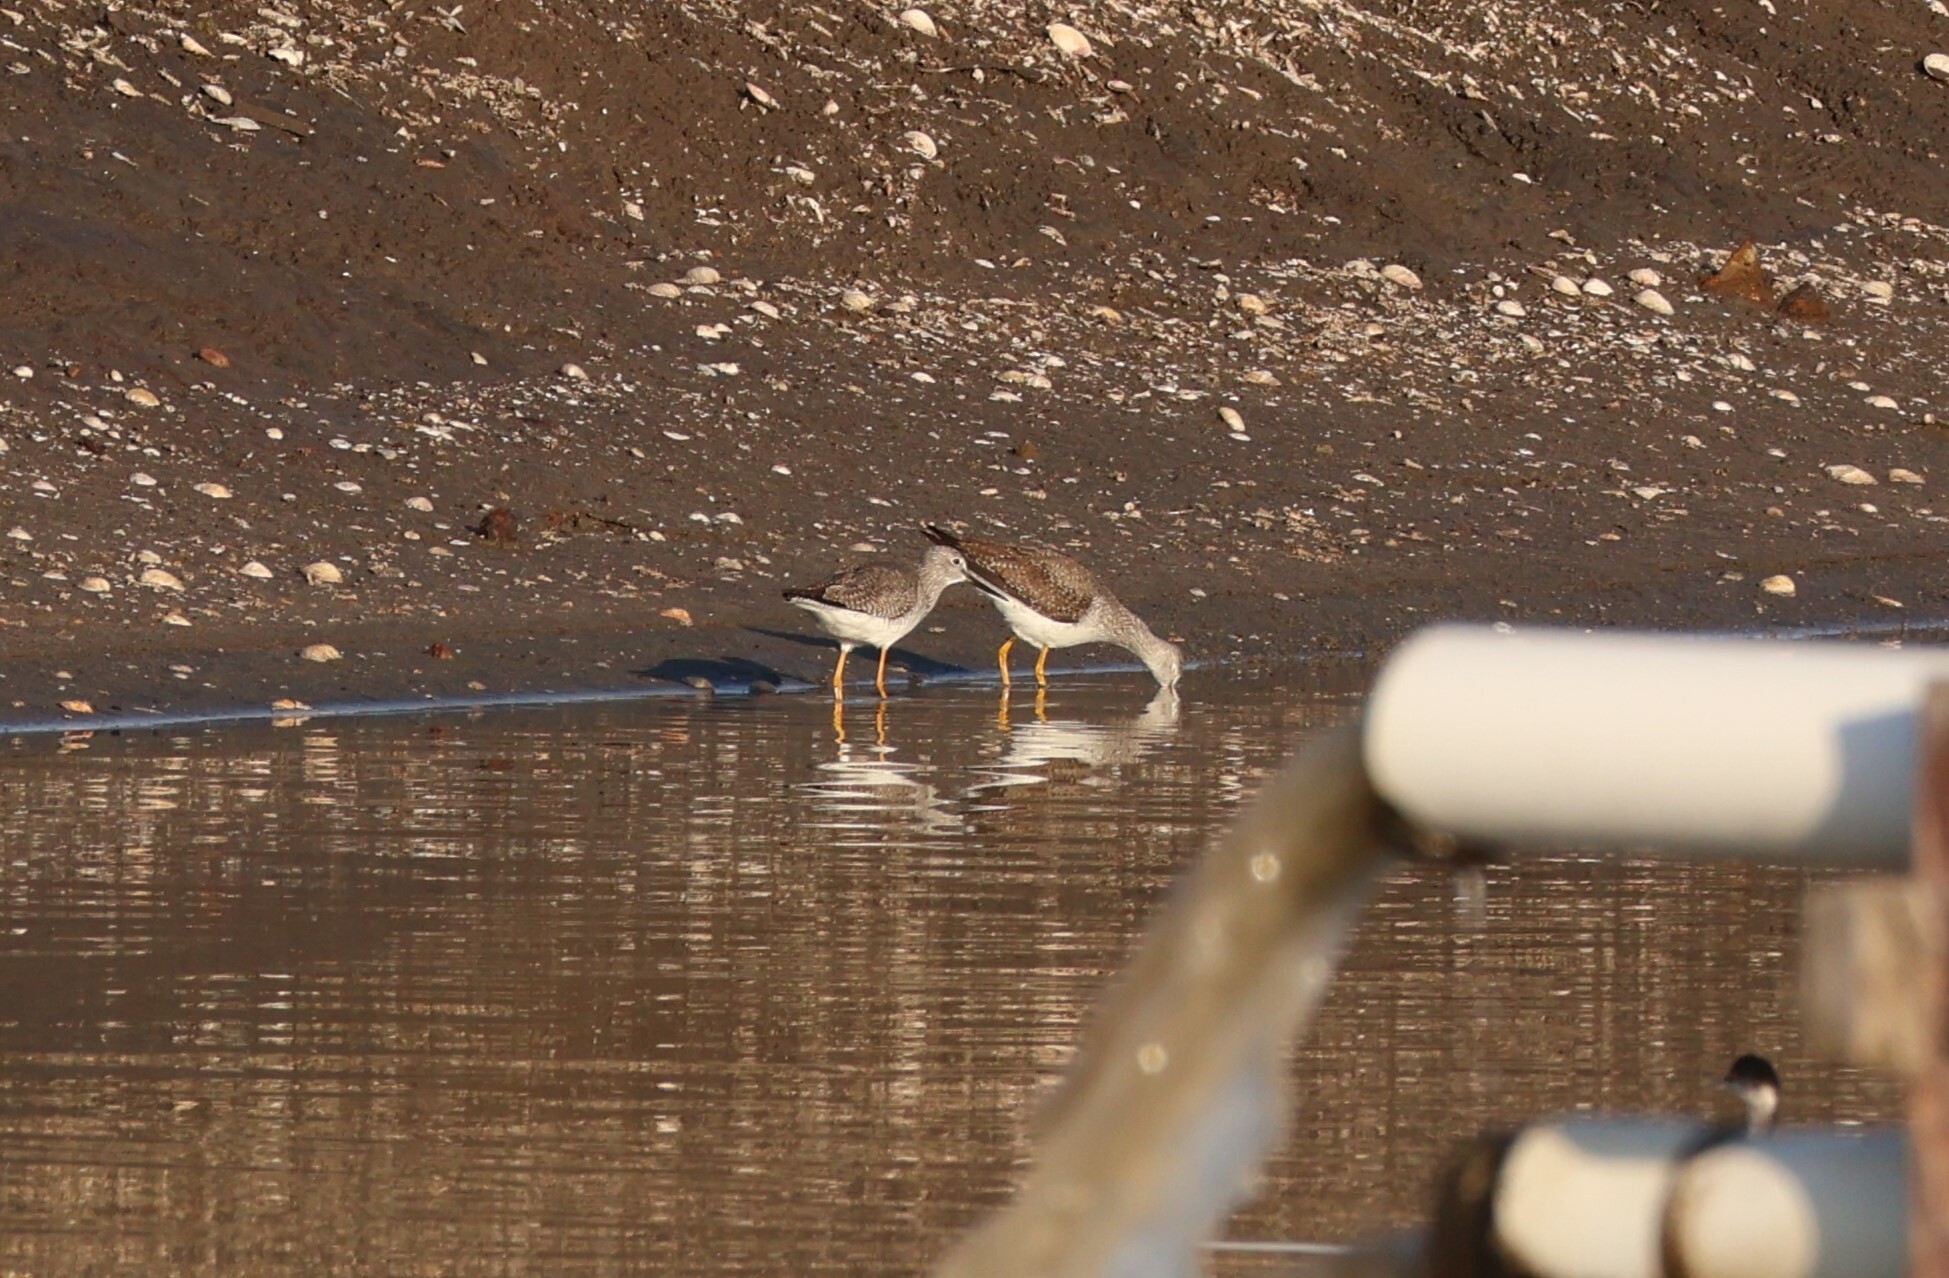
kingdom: Animalia
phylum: Chordata
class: Aves
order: Charadriiformes
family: Scolopacidae
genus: Tringa
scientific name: Tringa melanoleuca
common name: Greater yellowlegs
